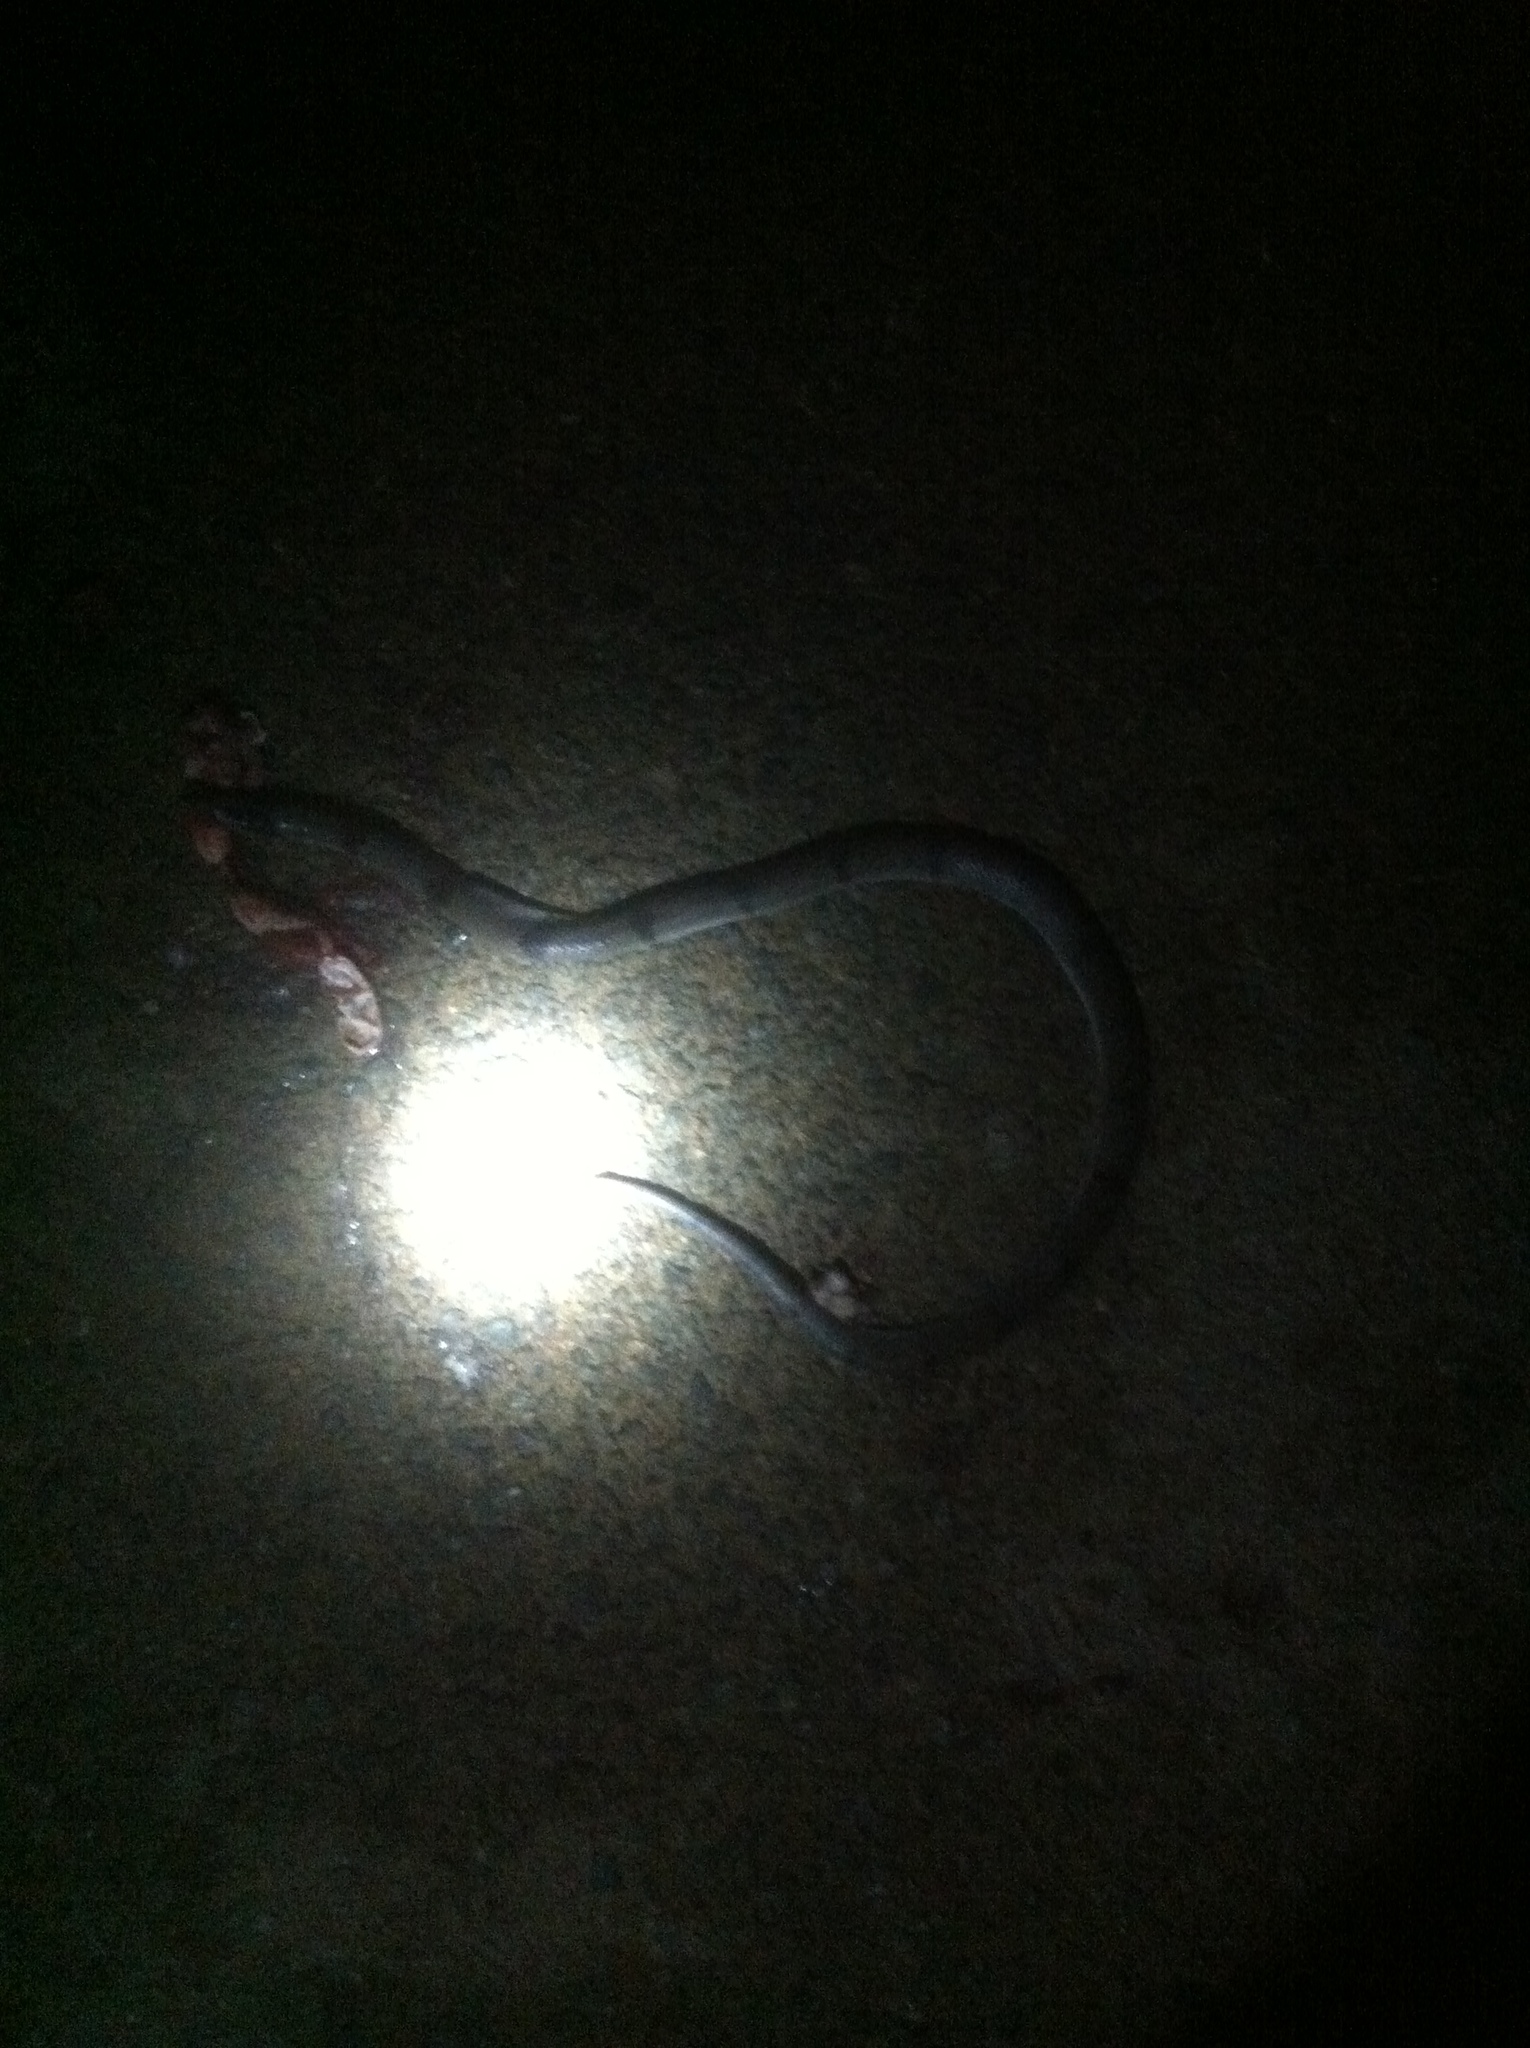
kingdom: Animalia
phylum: Chordata
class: Squamata
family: Colubridae
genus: Oligodon
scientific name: Oligodon arnensis
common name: Banded kukri
